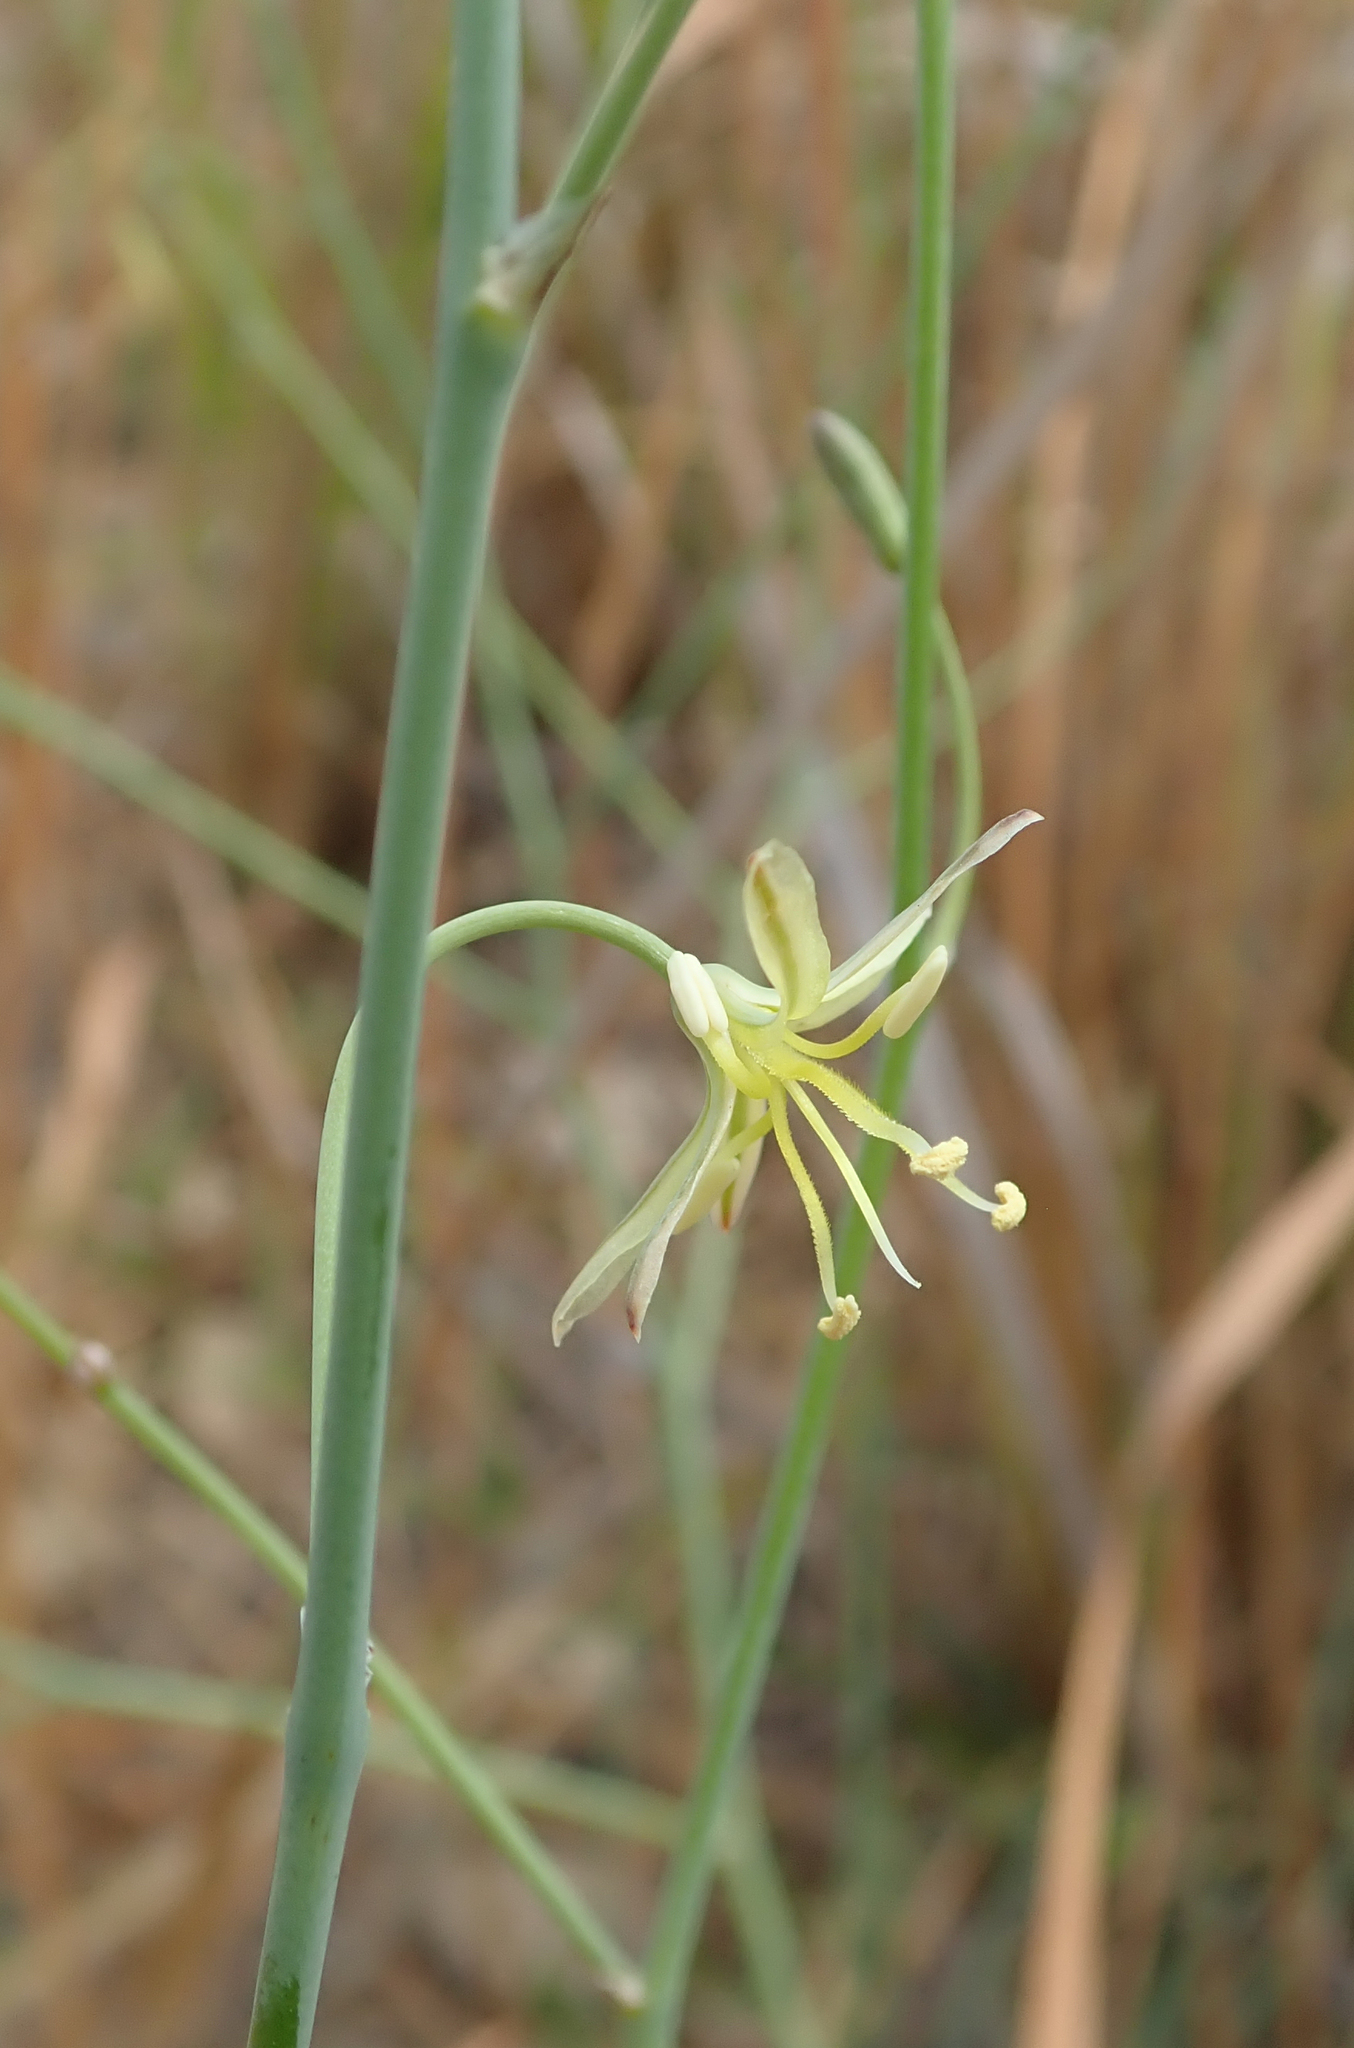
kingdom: Plantae
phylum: Tracheophyta
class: Liliopsida
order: Asparagales
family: Asphodelaceae
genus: Trachyandra
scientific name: Trachyandra arvensis
